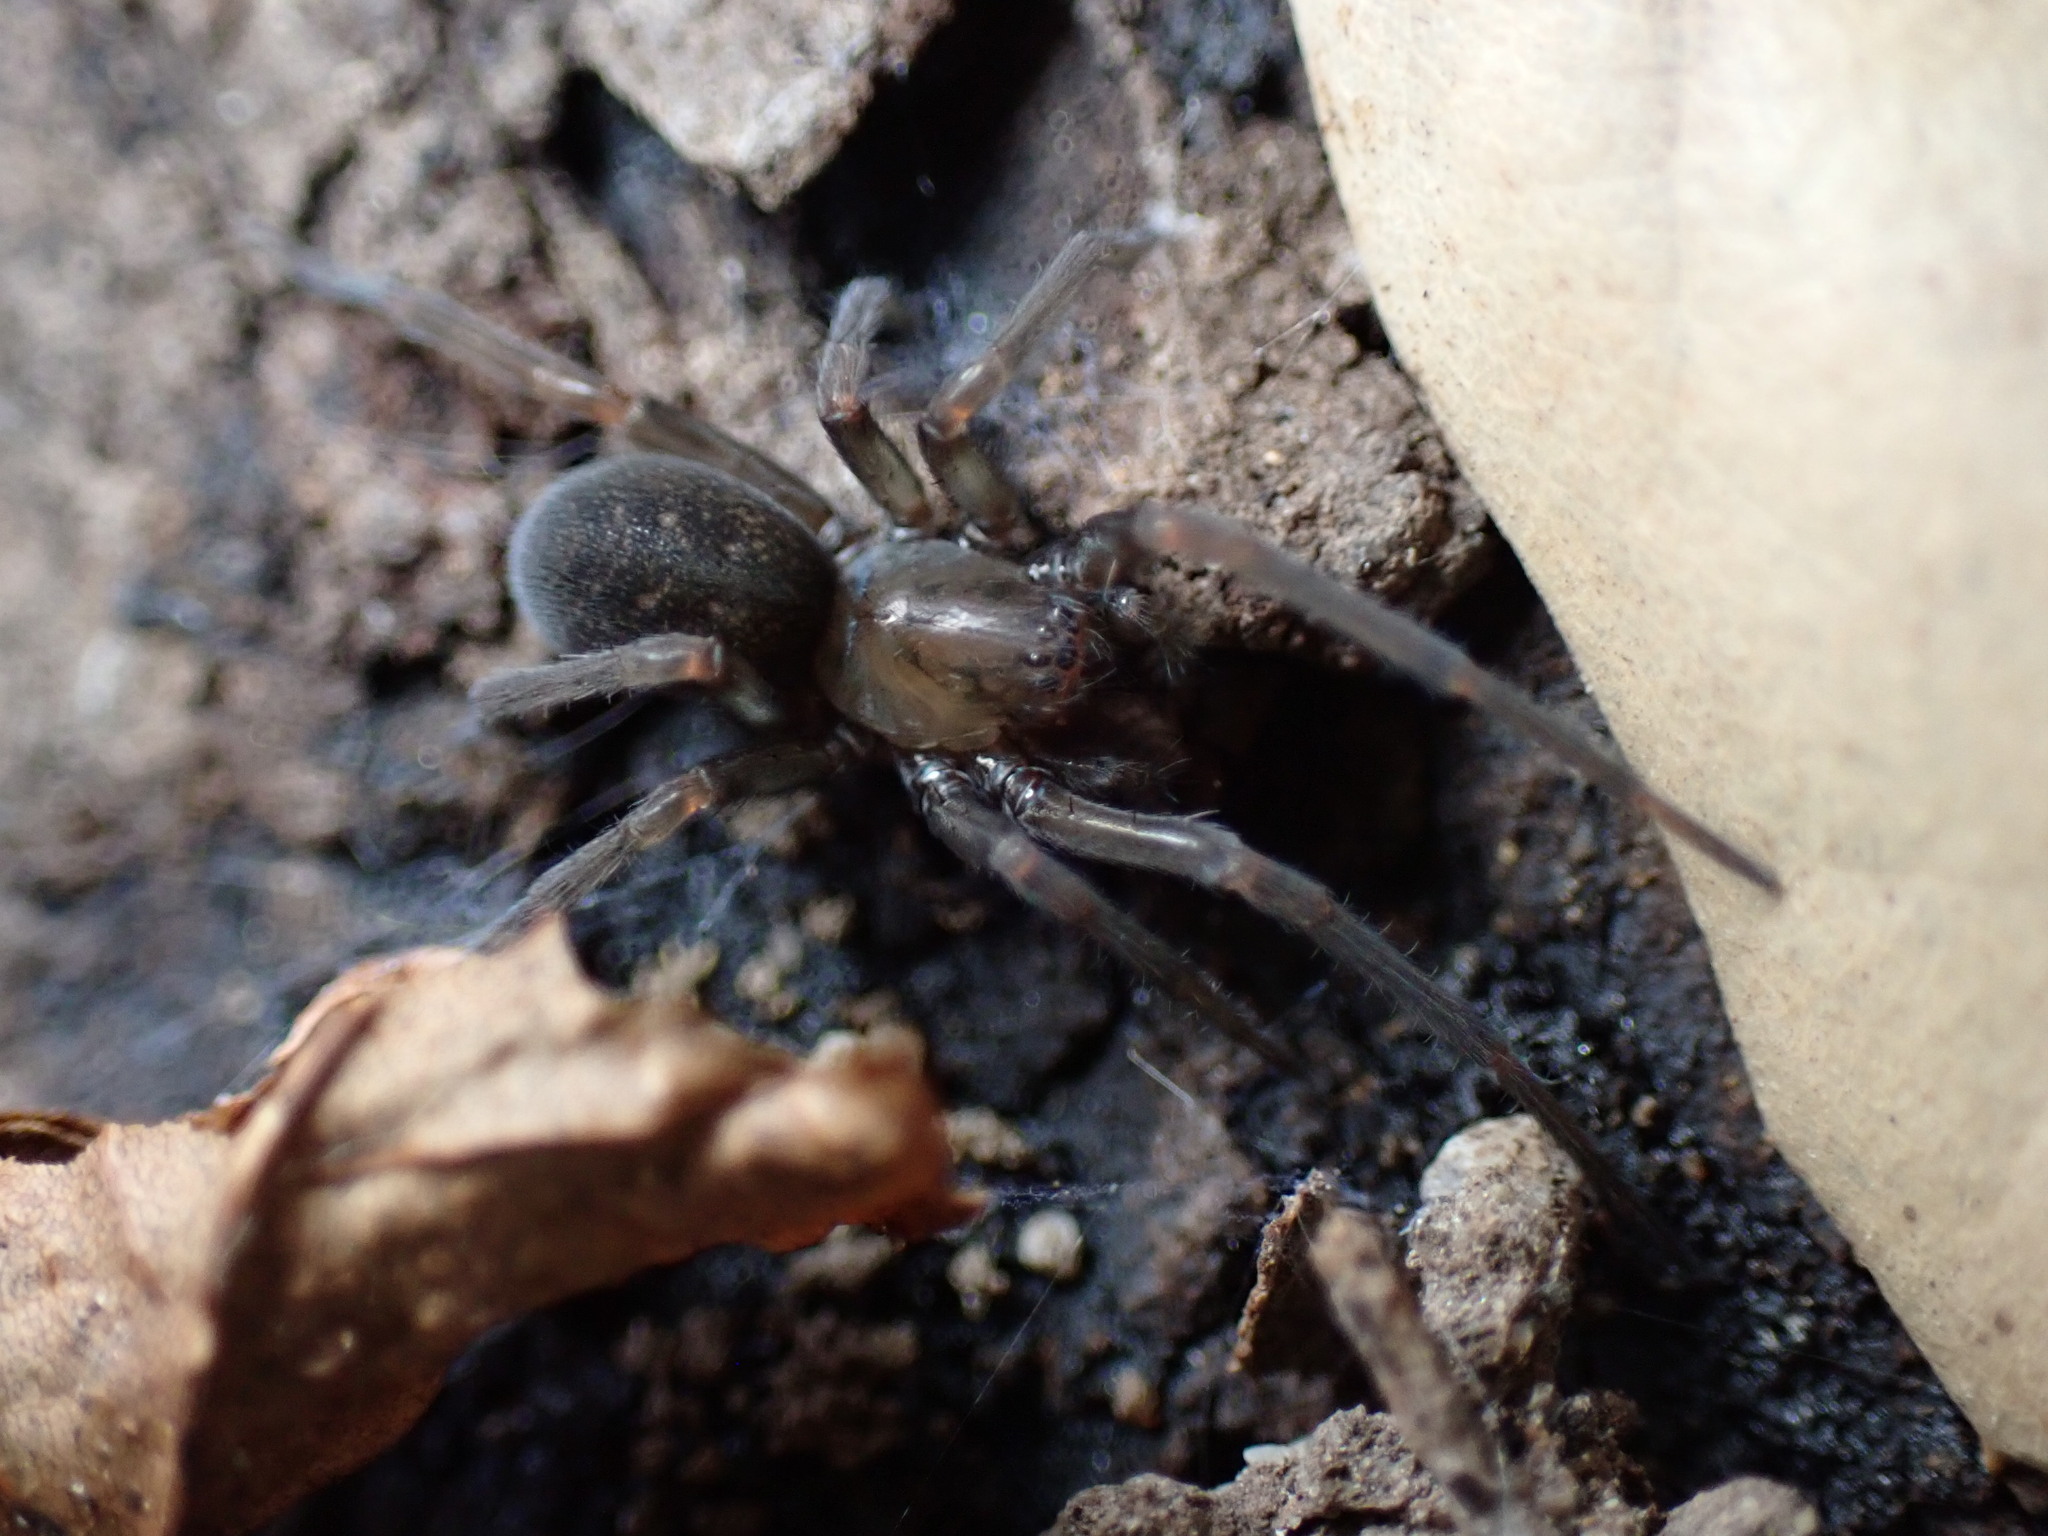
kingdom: Animalia
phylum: Arthropoda
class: Arachnida
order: Araneae
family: Desidae
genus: Metaltella
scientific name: Metaltella simoni
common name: Cribellate spider
